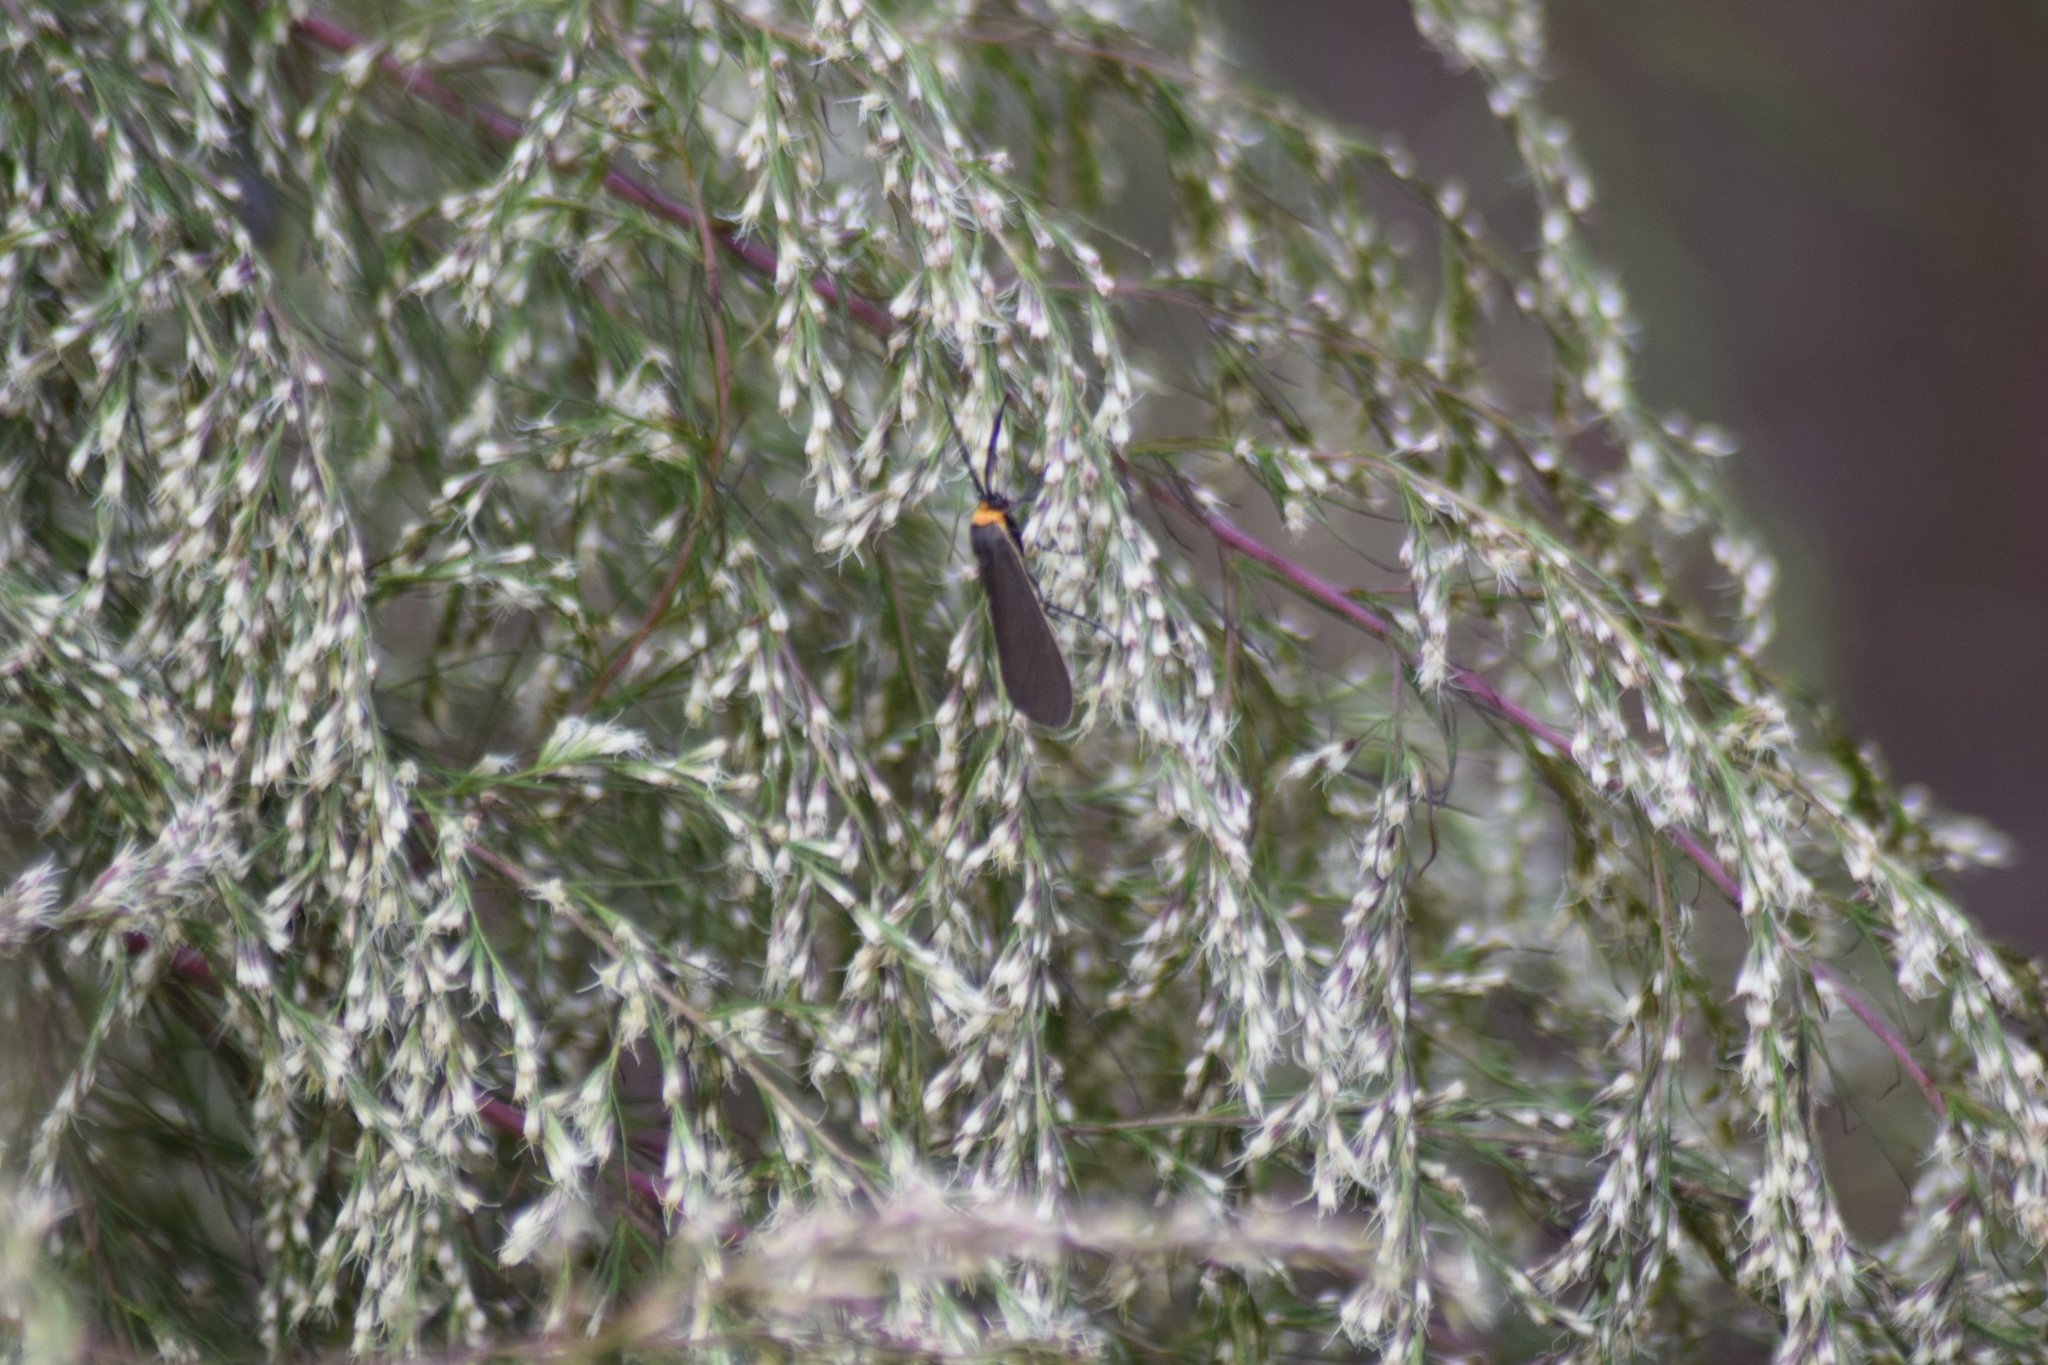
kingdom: Animalia
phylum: Arthropoda
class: Insecta
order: Lepidoptera
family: Erebidae
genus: Cisseps
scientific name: Cisseps fulvicollis
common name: Yellow-collared scape moth
